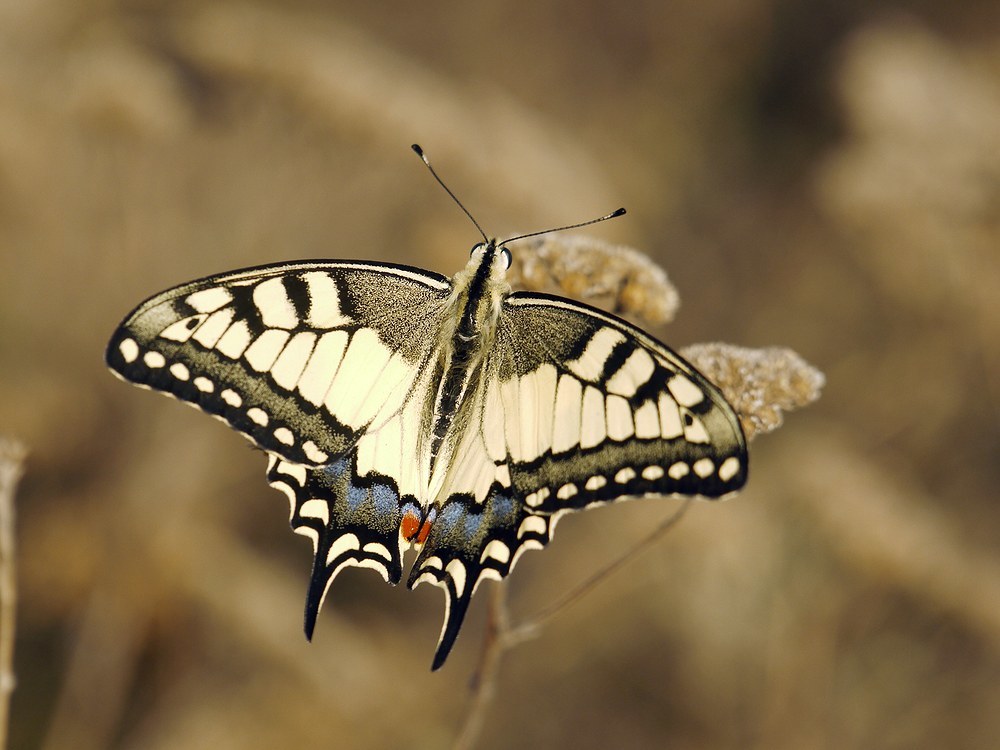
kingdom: Animalia
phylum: Arthropoda
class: Insecta
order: Lepidoptera
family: Papilionidae
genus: Papilio
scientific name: Papilio machaon
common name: Swallowtail
